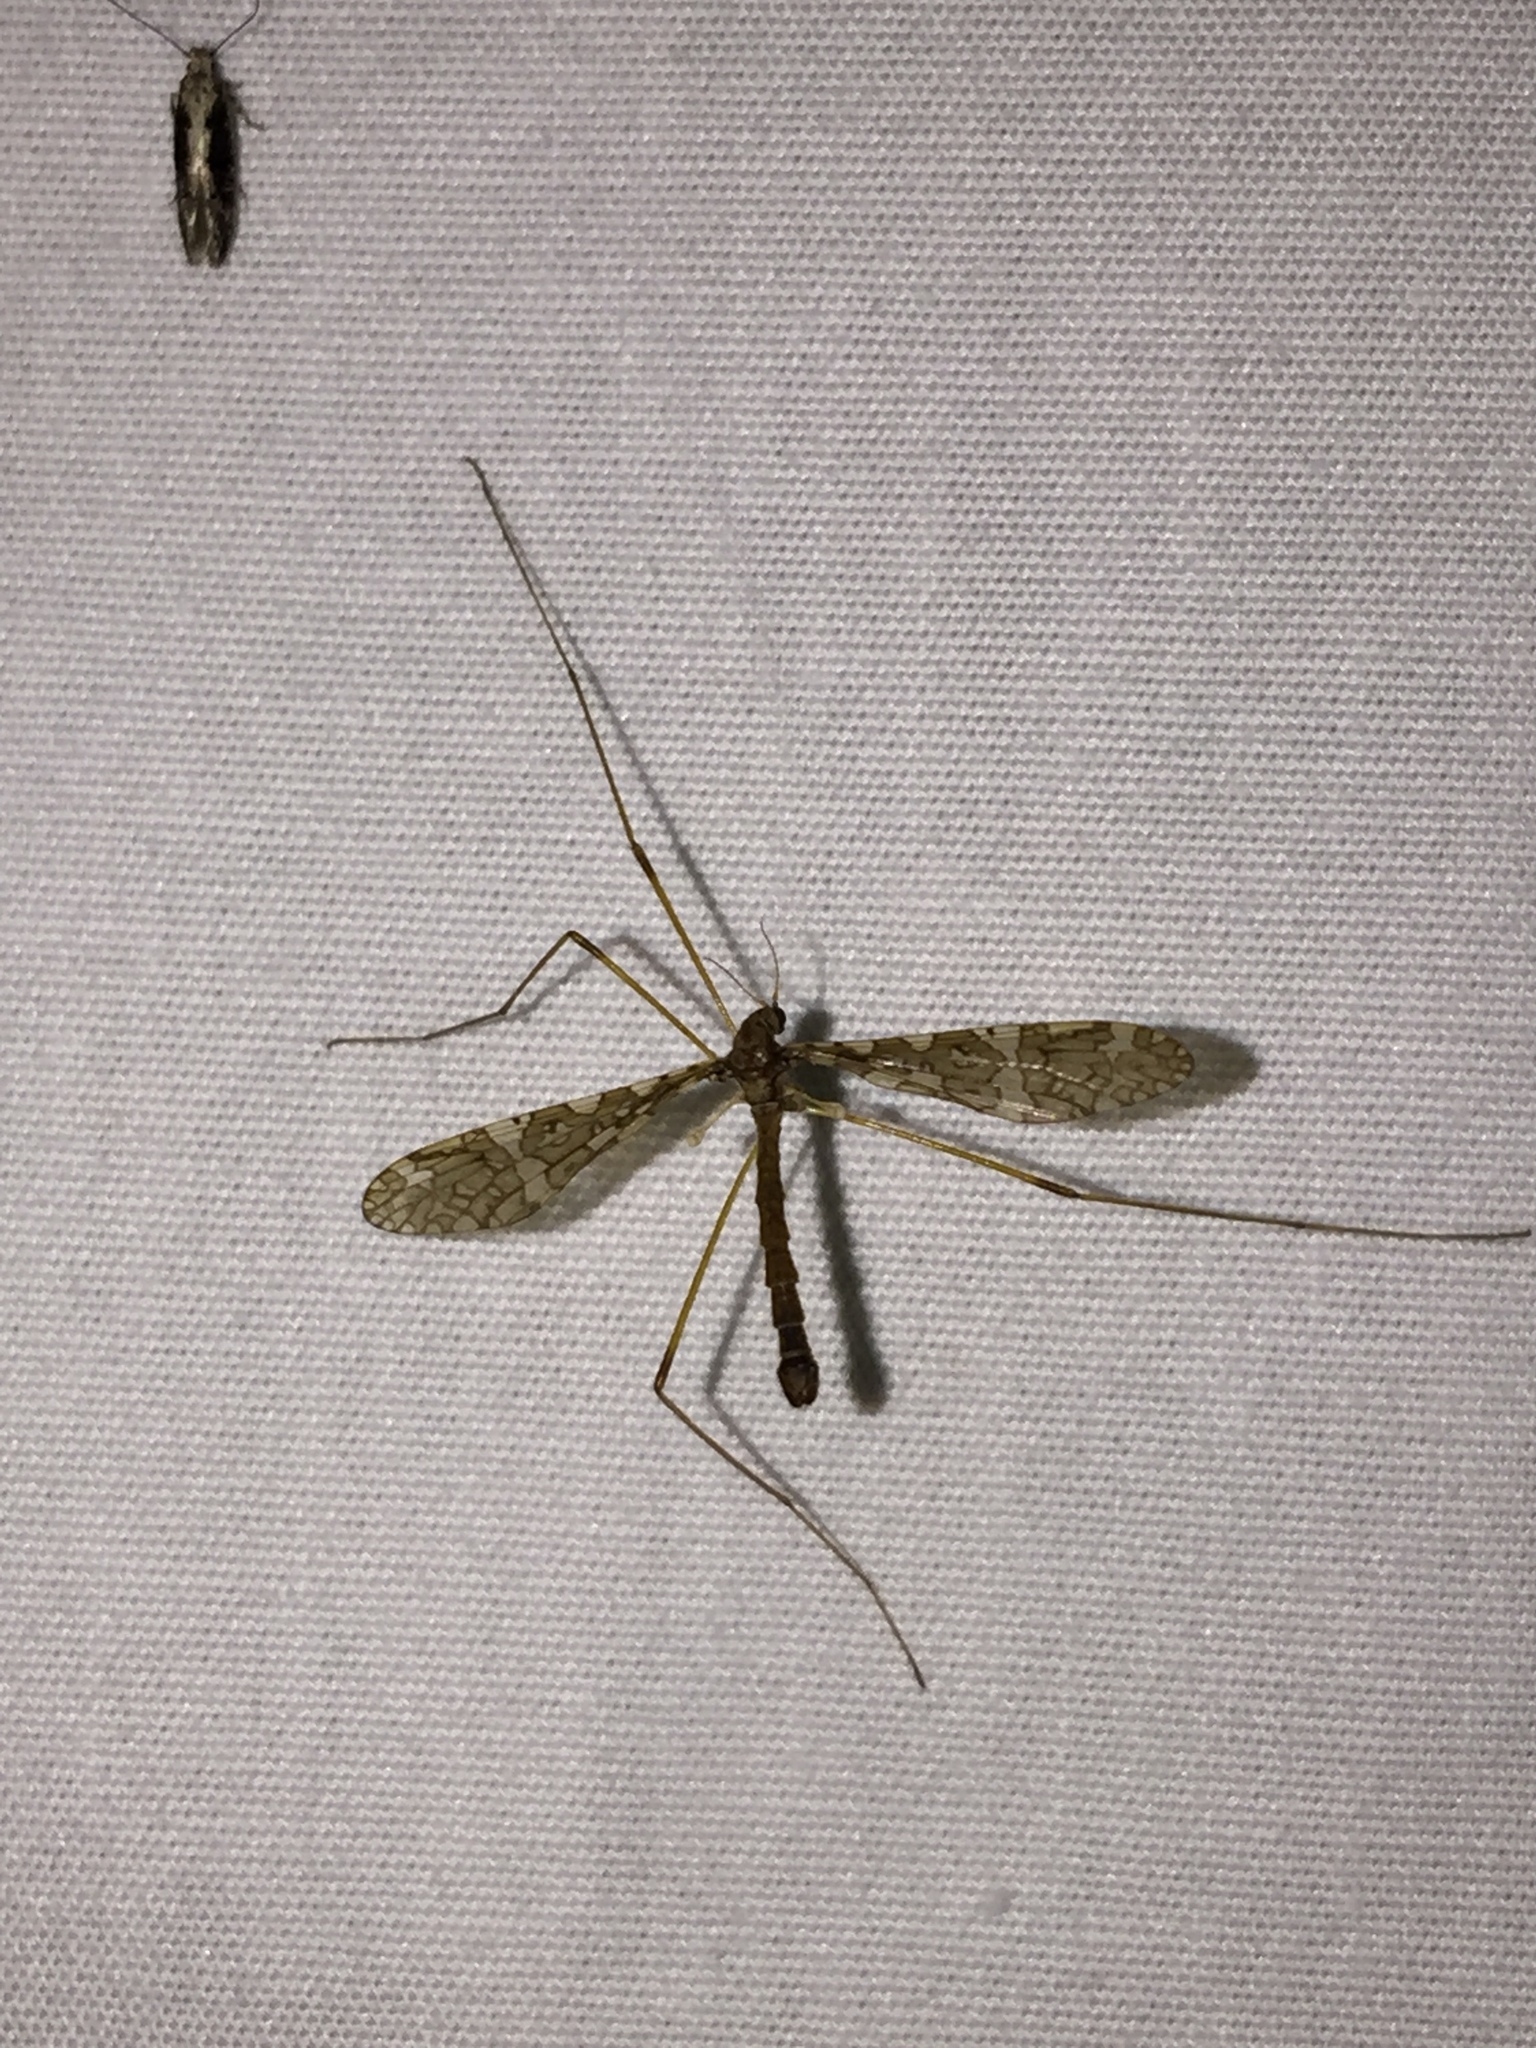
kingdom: Animalia
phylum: Arthropoda
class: Insecta
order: Diptera
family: Limoniidae
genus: Epiphragma
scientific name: Epiphragma fasciapenne
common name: Band-winged crane fly
